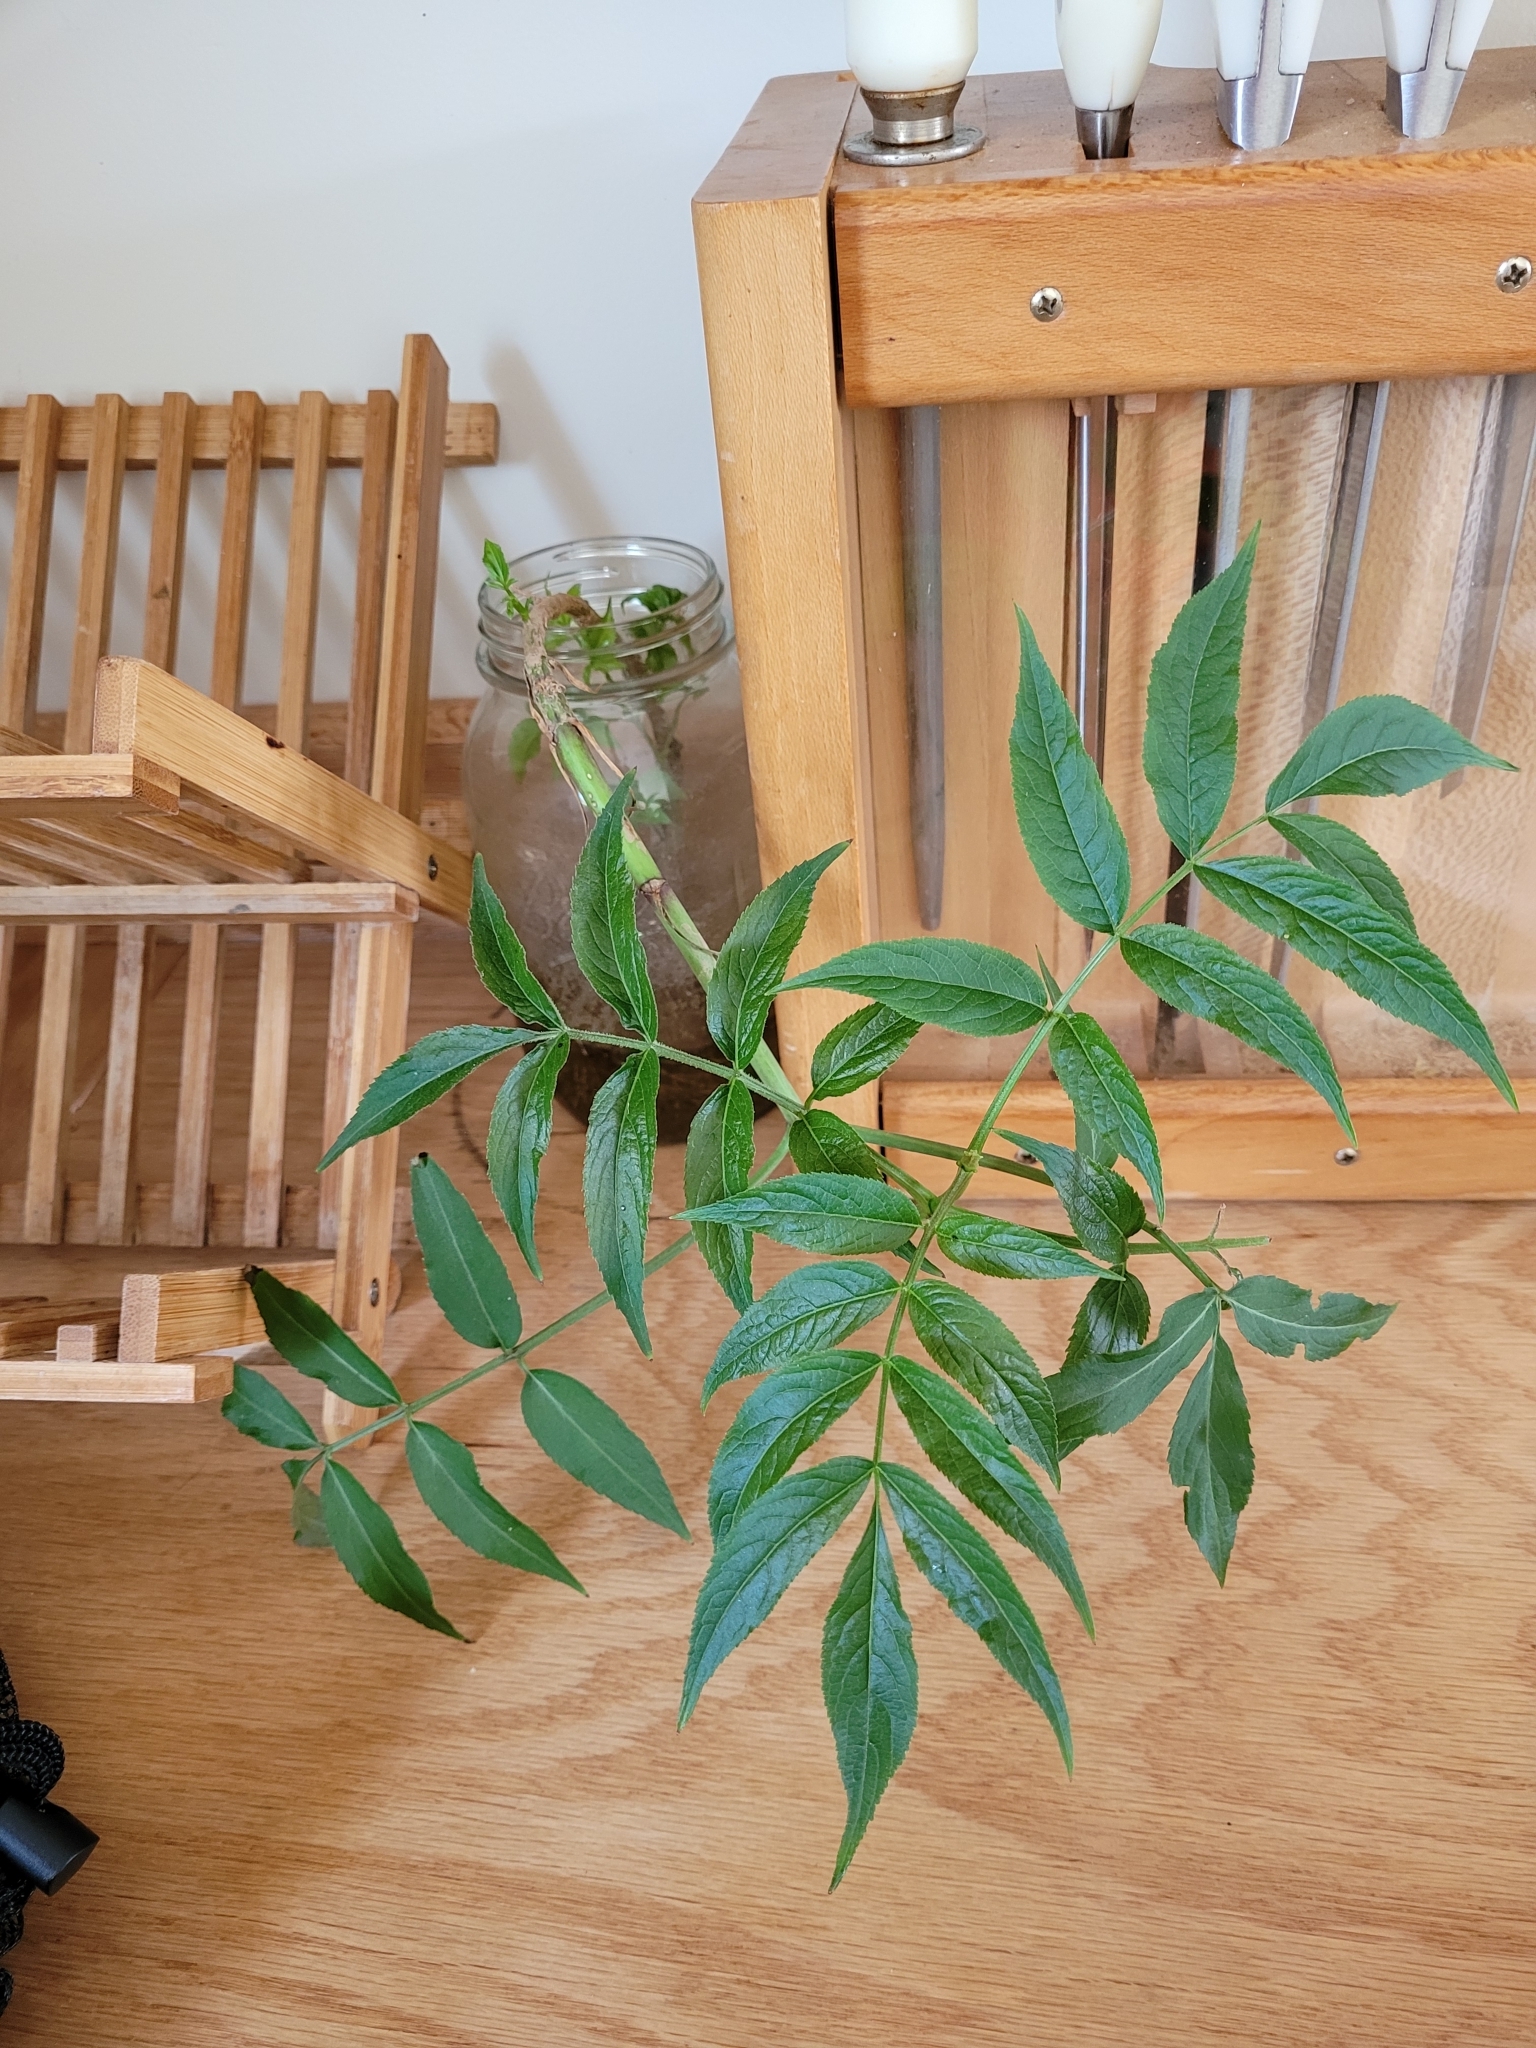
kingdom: Plantae
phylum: Tracheophyta
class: Magnoliopsida
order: Dipsacales
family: Viburnaceae
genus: Sambucus
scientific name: Sambucus canadensis
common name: American elder
